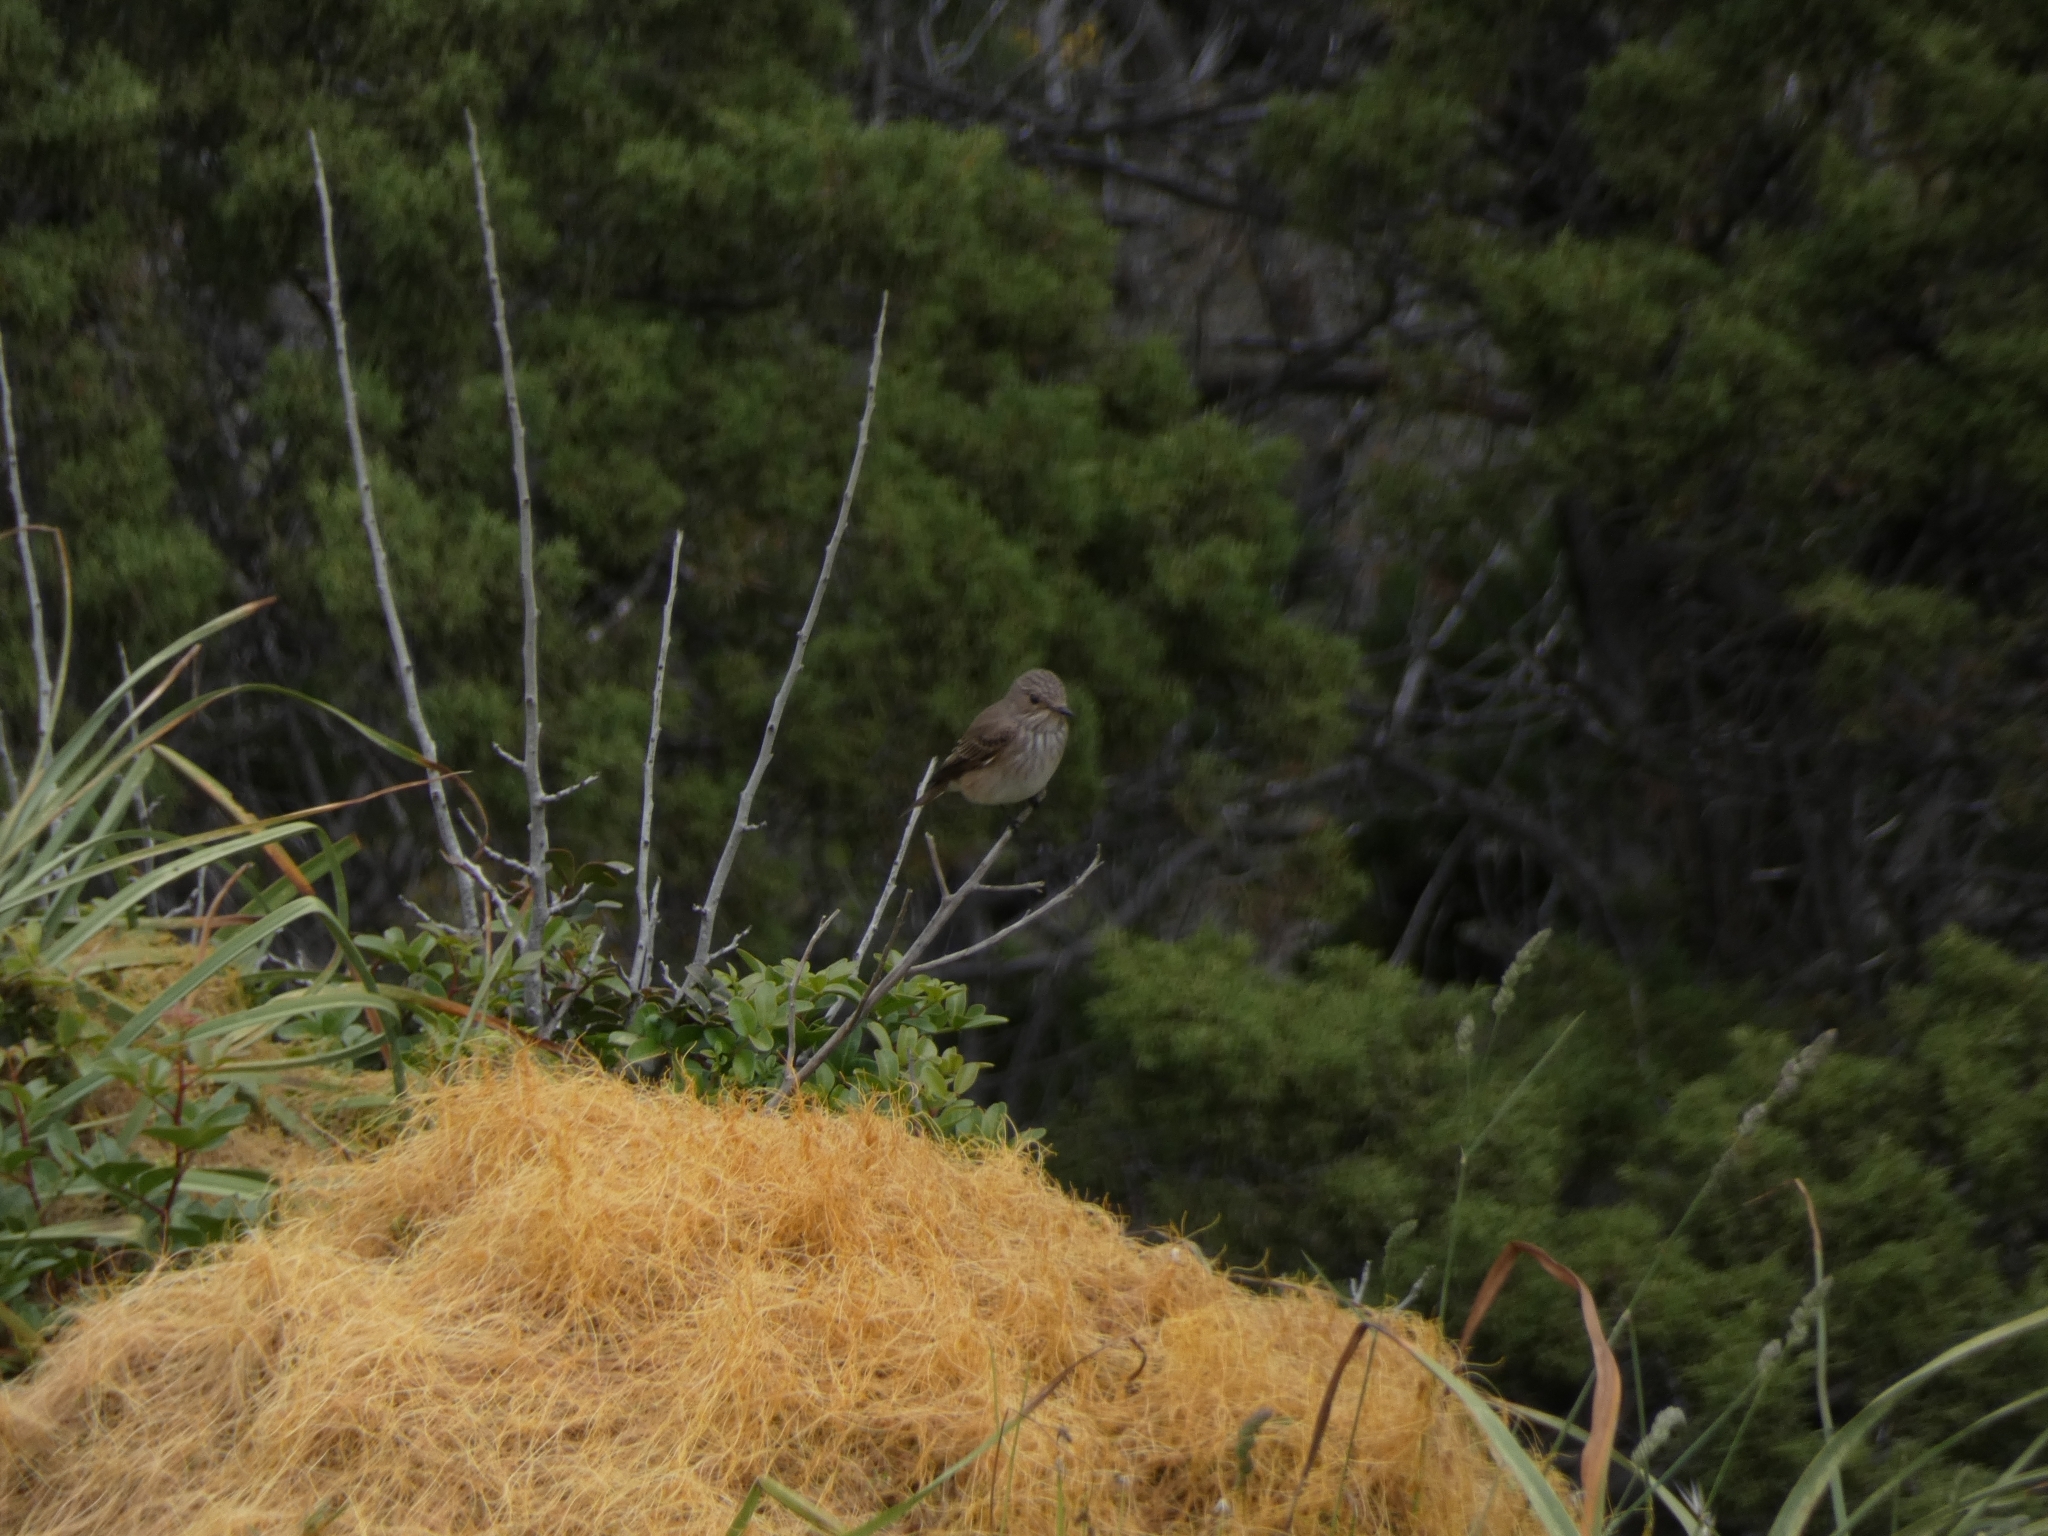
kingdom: Animalia
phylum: Chordata
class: Aves
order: Passeriformes
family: Muscicapidae
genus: Muscicapa
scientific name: Muscicapa striata
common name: Spotted flycatcher
